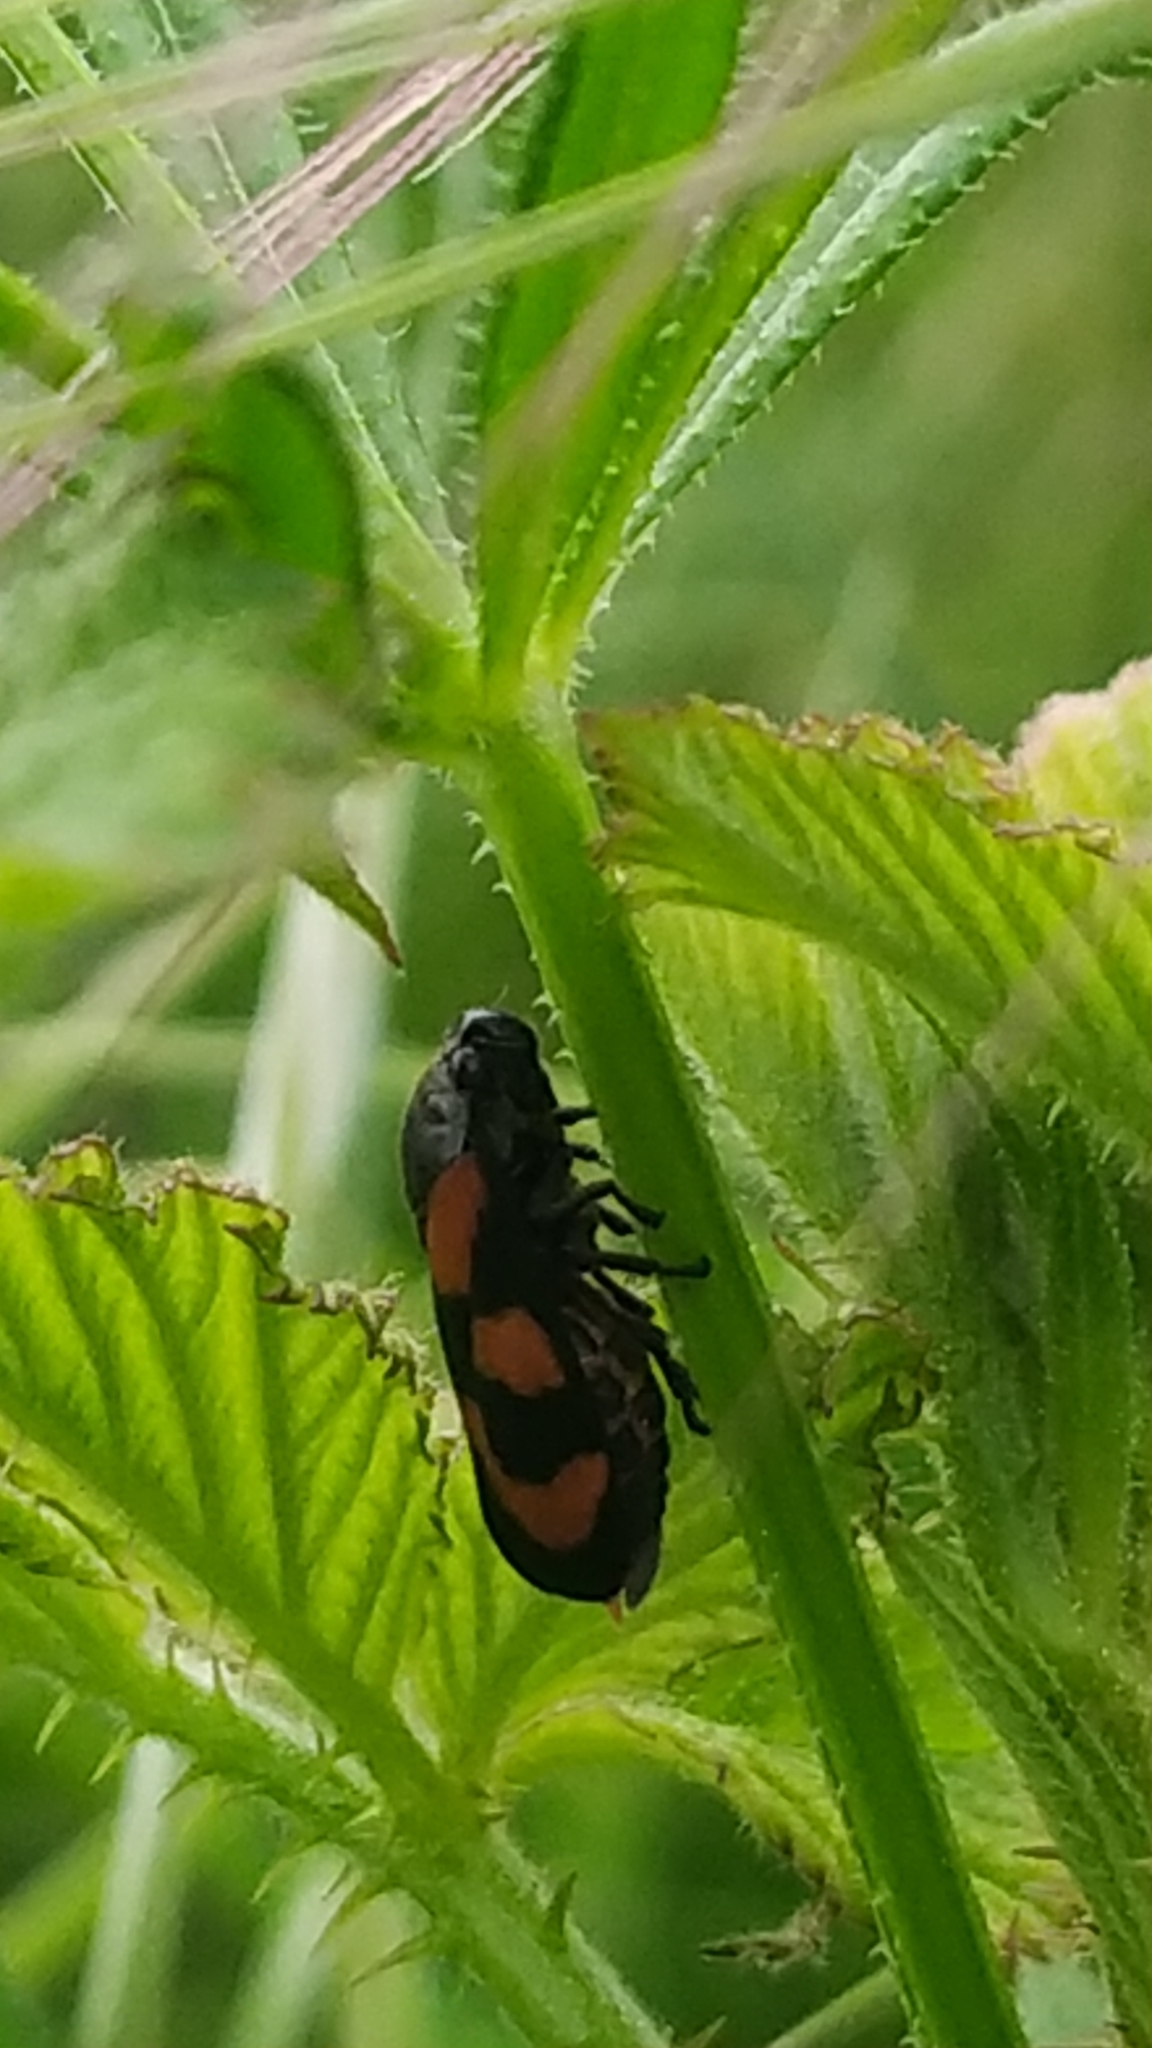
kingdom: Animalia
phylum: Arthropoda
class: Insecta
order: Hemiptera
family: Cercopidae
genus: Cercopis
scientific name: Cercopis vulnerata
